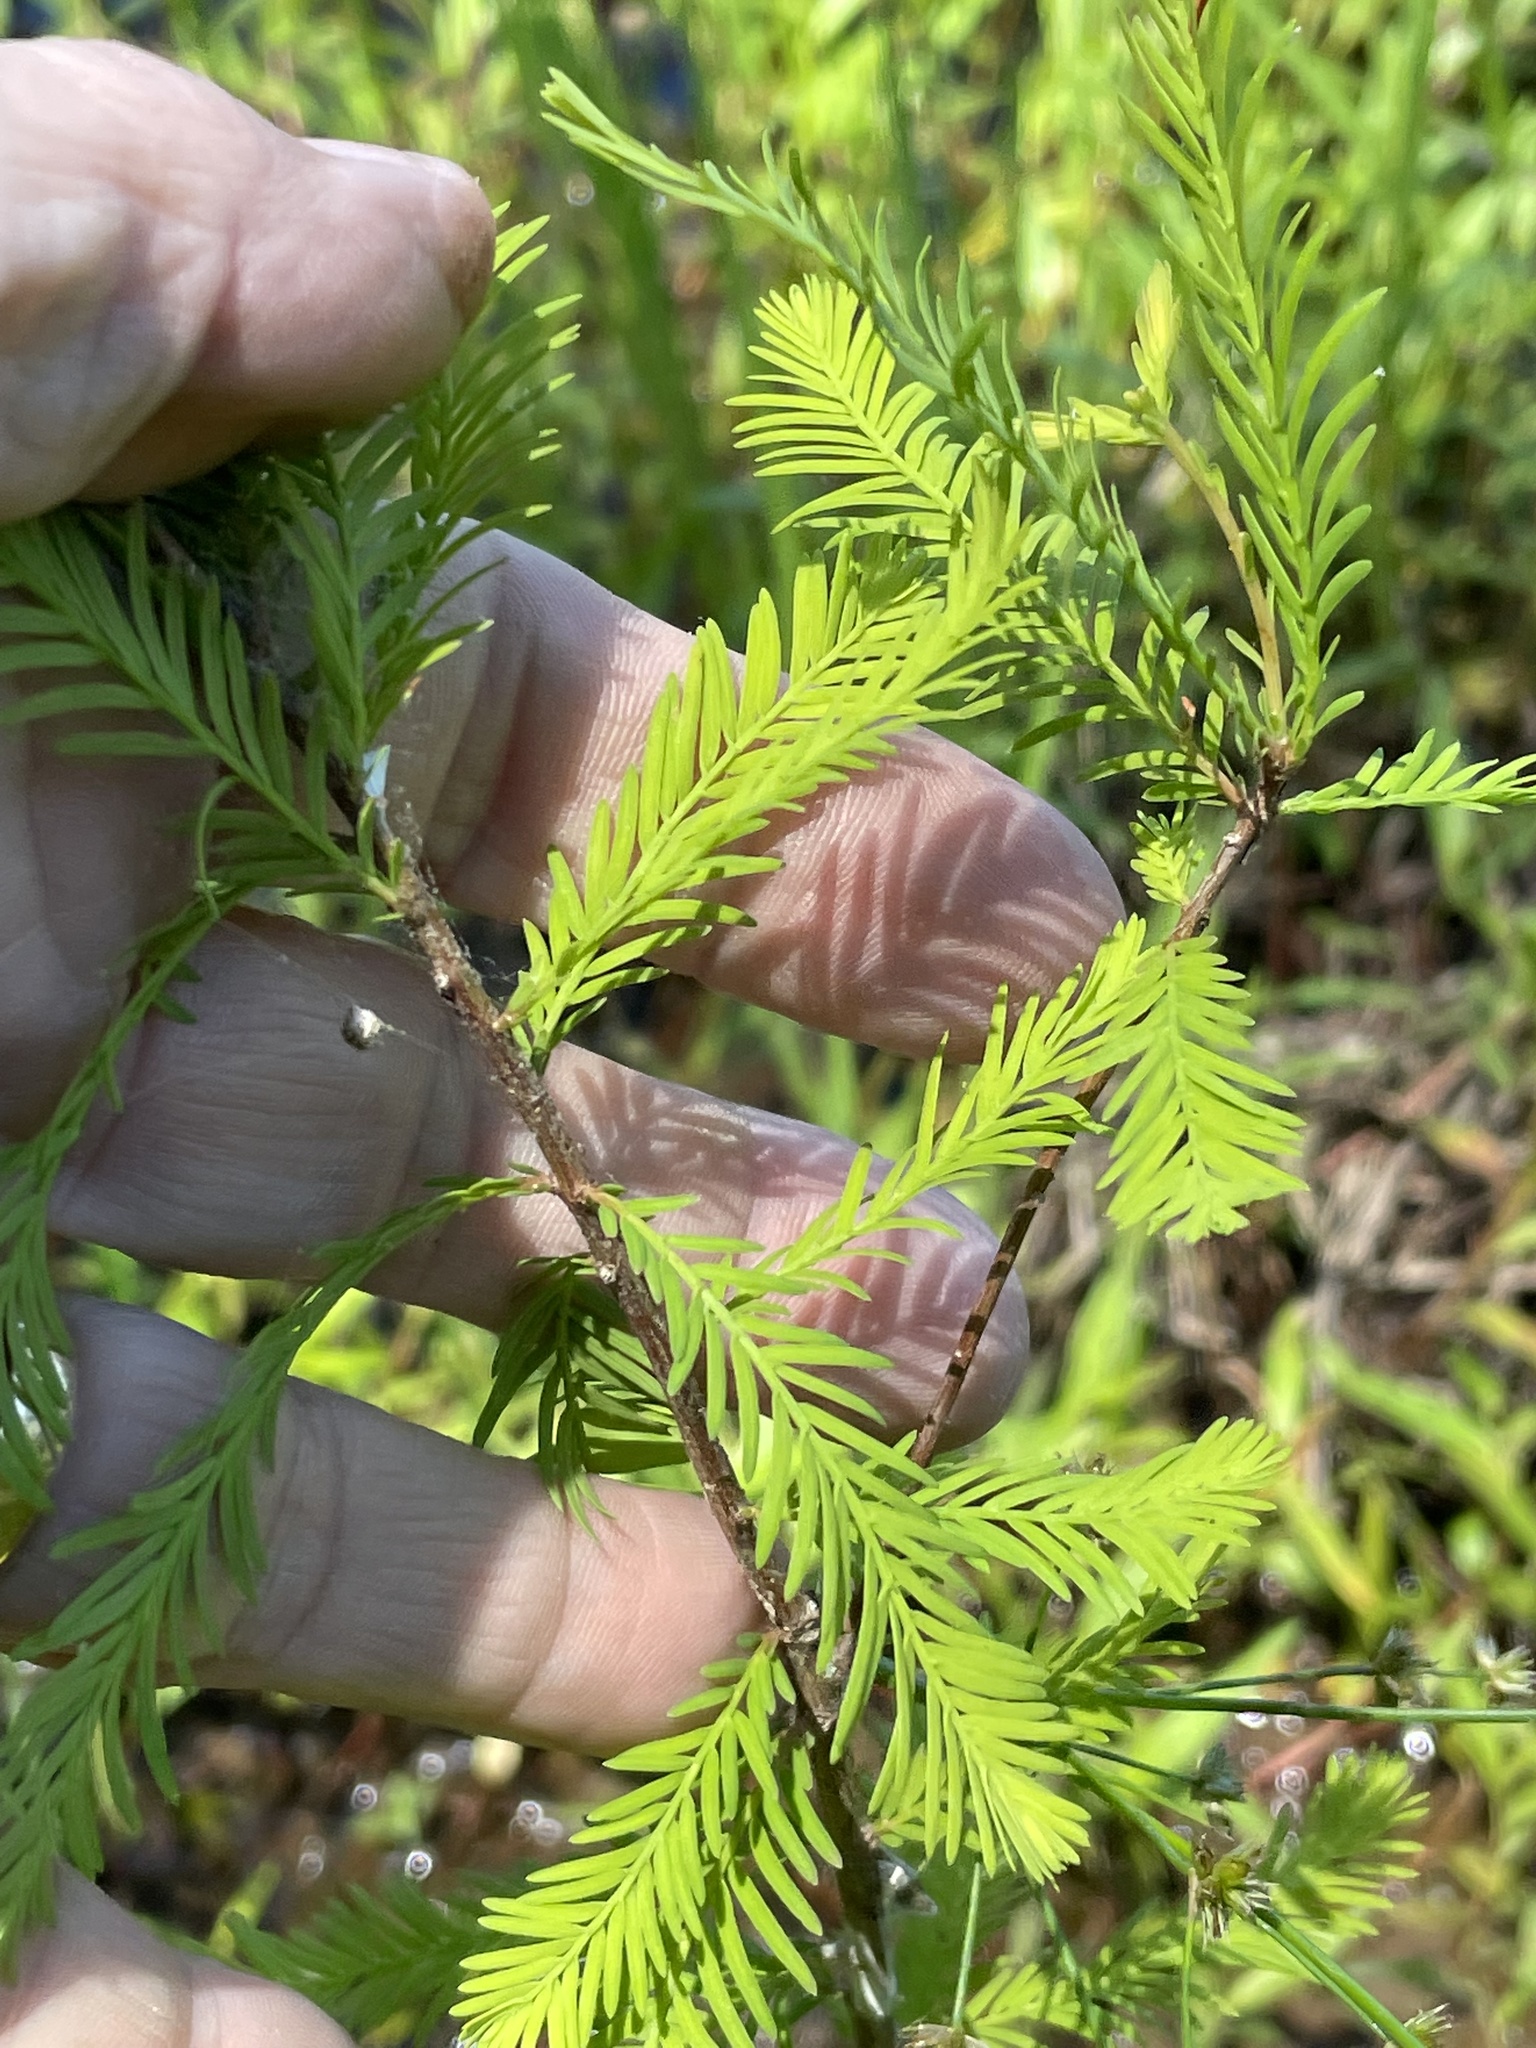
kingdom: Plantae
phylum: Tracheophyta
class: Pinopsida
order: Pinales
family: Cupressaceae
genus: Taxodium
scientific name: Taxodium distichum
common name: Bald cypress
